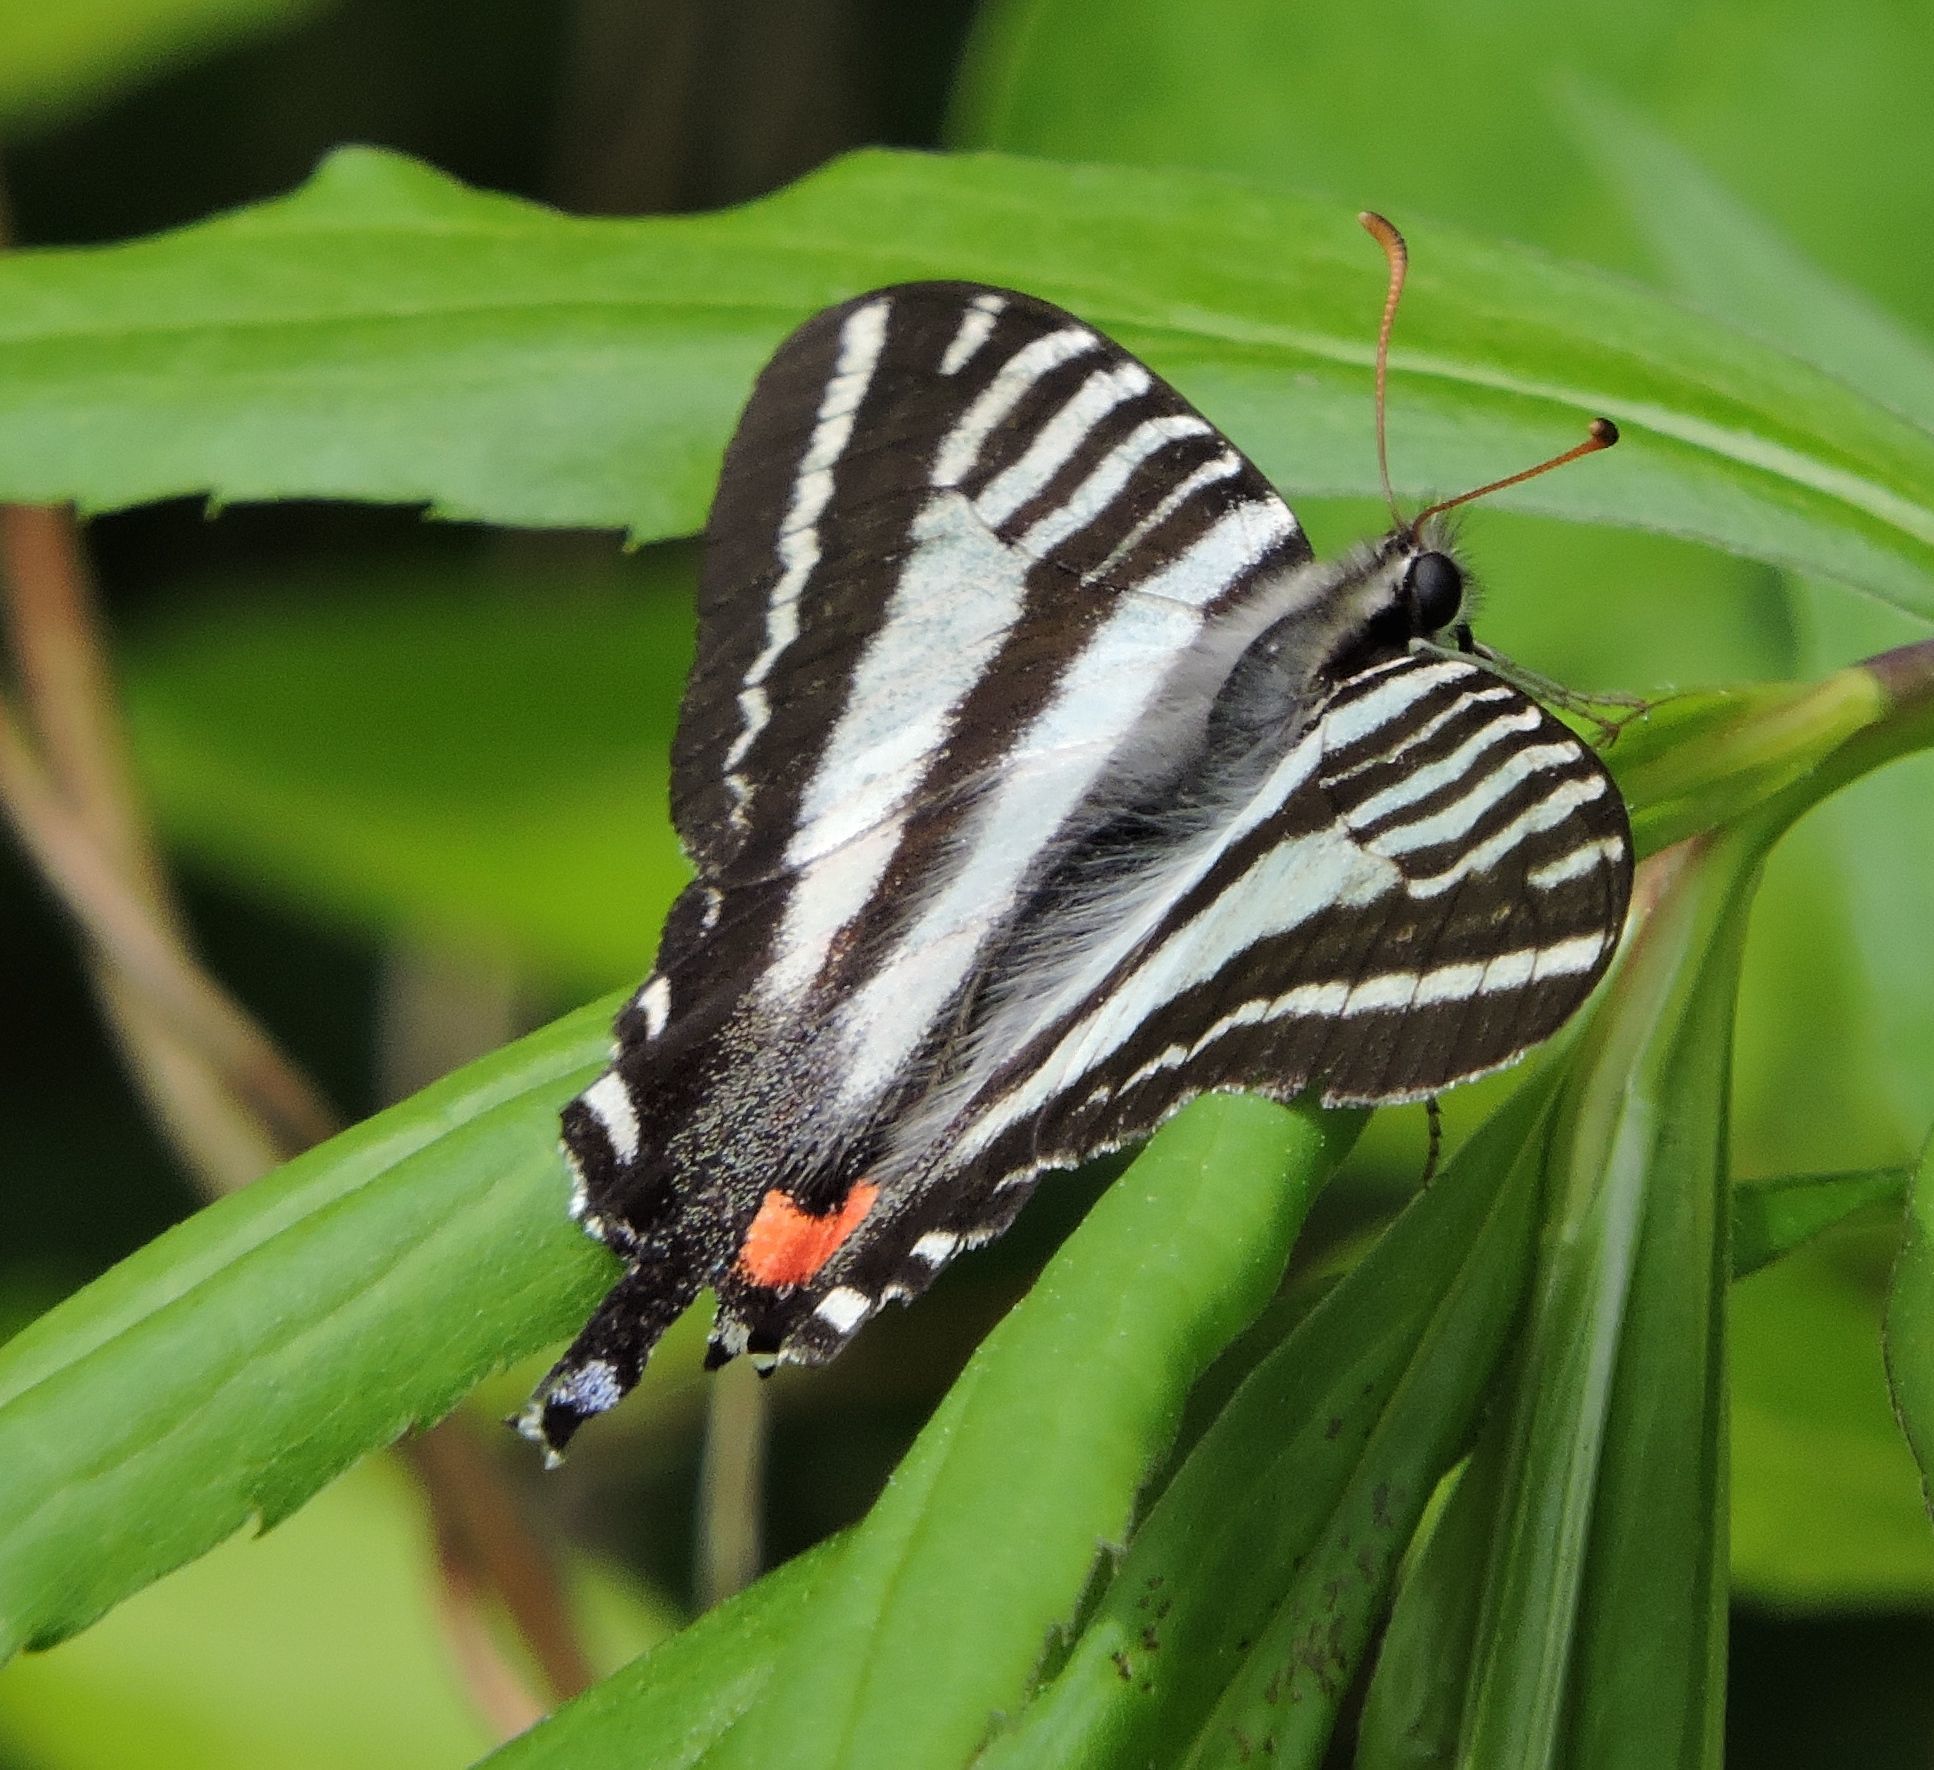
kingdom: Animalia
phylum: Arthropoda
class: Insecta
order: Lepidoptera
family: Papilionidae
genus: Protographium
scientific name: Protographium marcellus
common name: Zebra swallowtail
